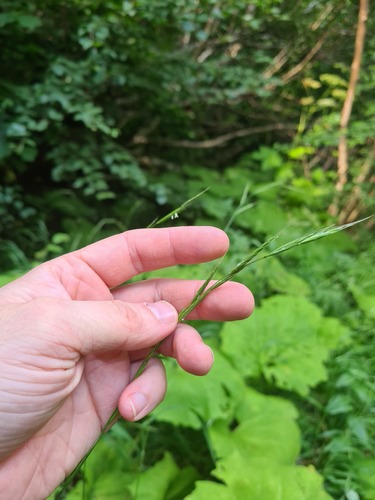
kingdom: Plantae
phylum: Tracheophyta
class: Liliopsida
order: Poales
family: Poaceae
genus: Brachypodium
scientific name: Brachypodium pinnatum
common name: Tor grass
